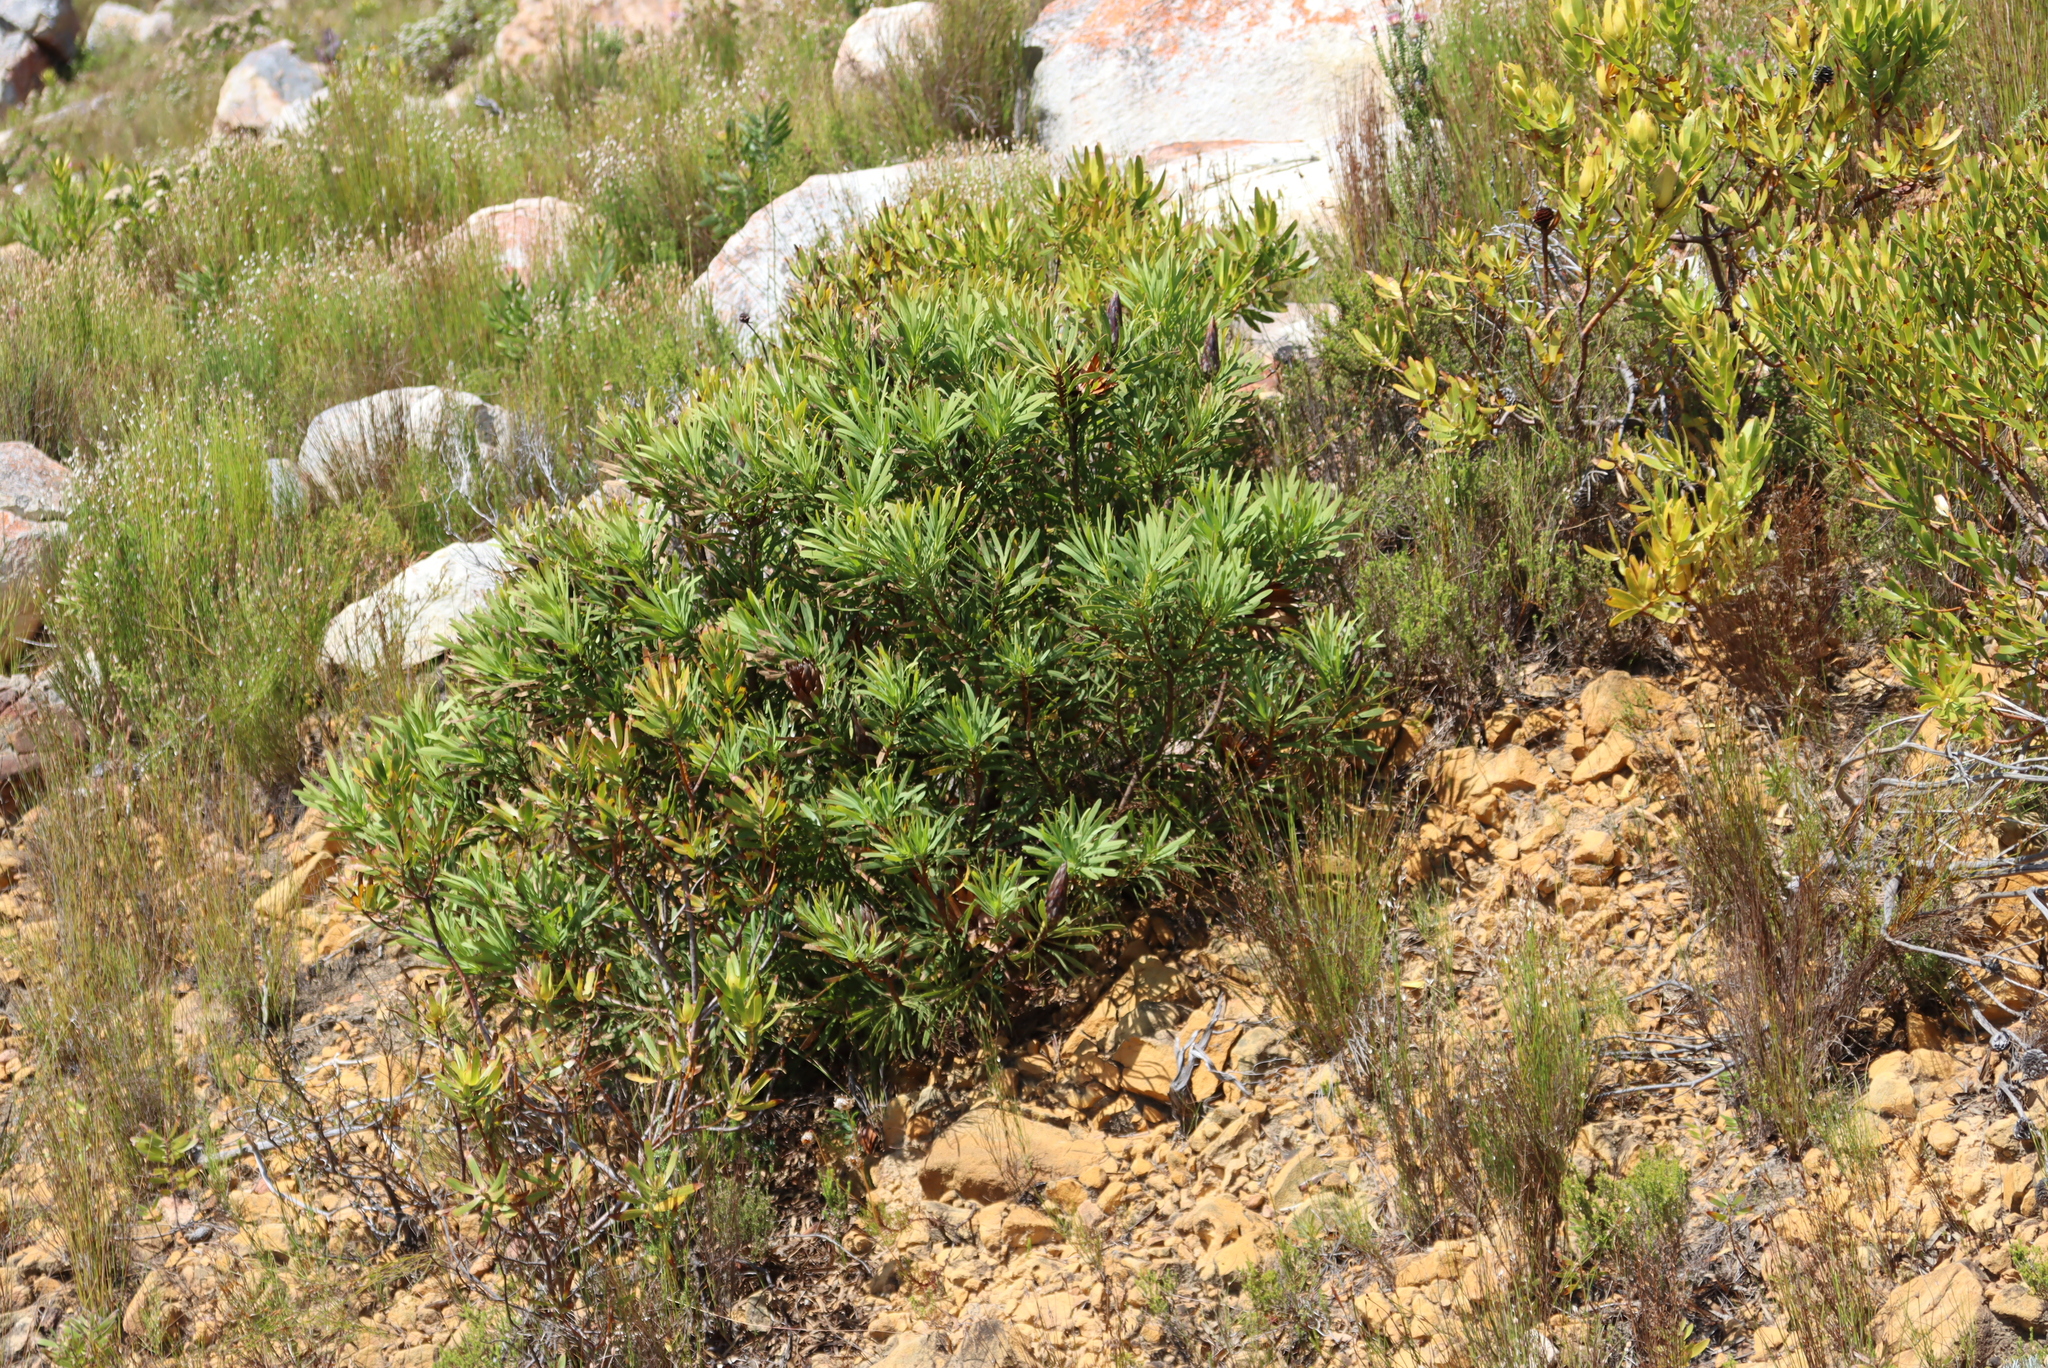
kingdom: Plantae
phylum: Tracheophyta
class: Magnoliopsida
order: Proteales
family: Proteaceae
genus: Protea
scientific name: Protea repens
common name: Sugarbush
